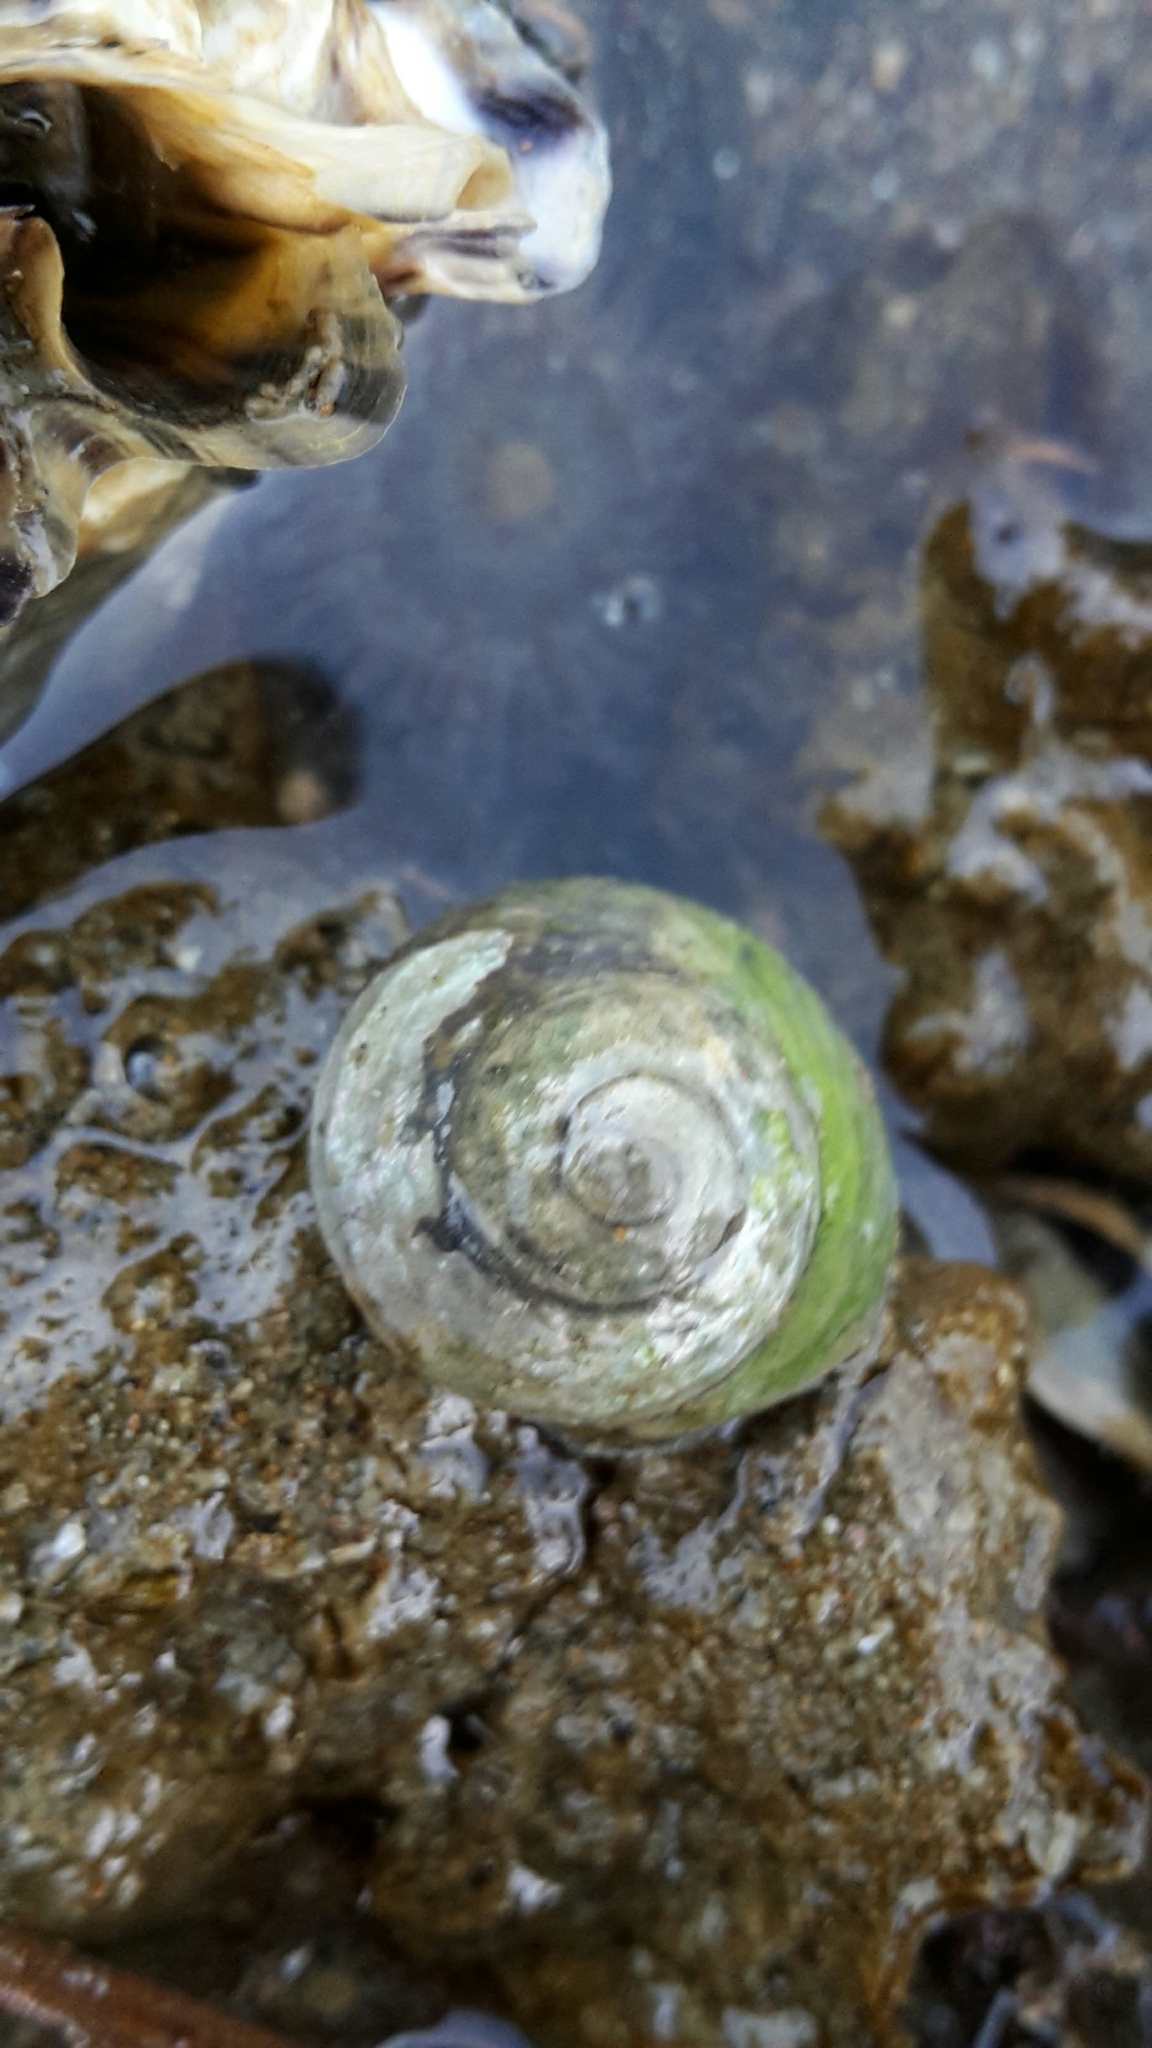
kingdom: Animalia
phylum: Mollusca
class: Gastropoda
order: Trochida
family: Trochidae
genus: Diloma
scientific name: Diloma subrostratum
